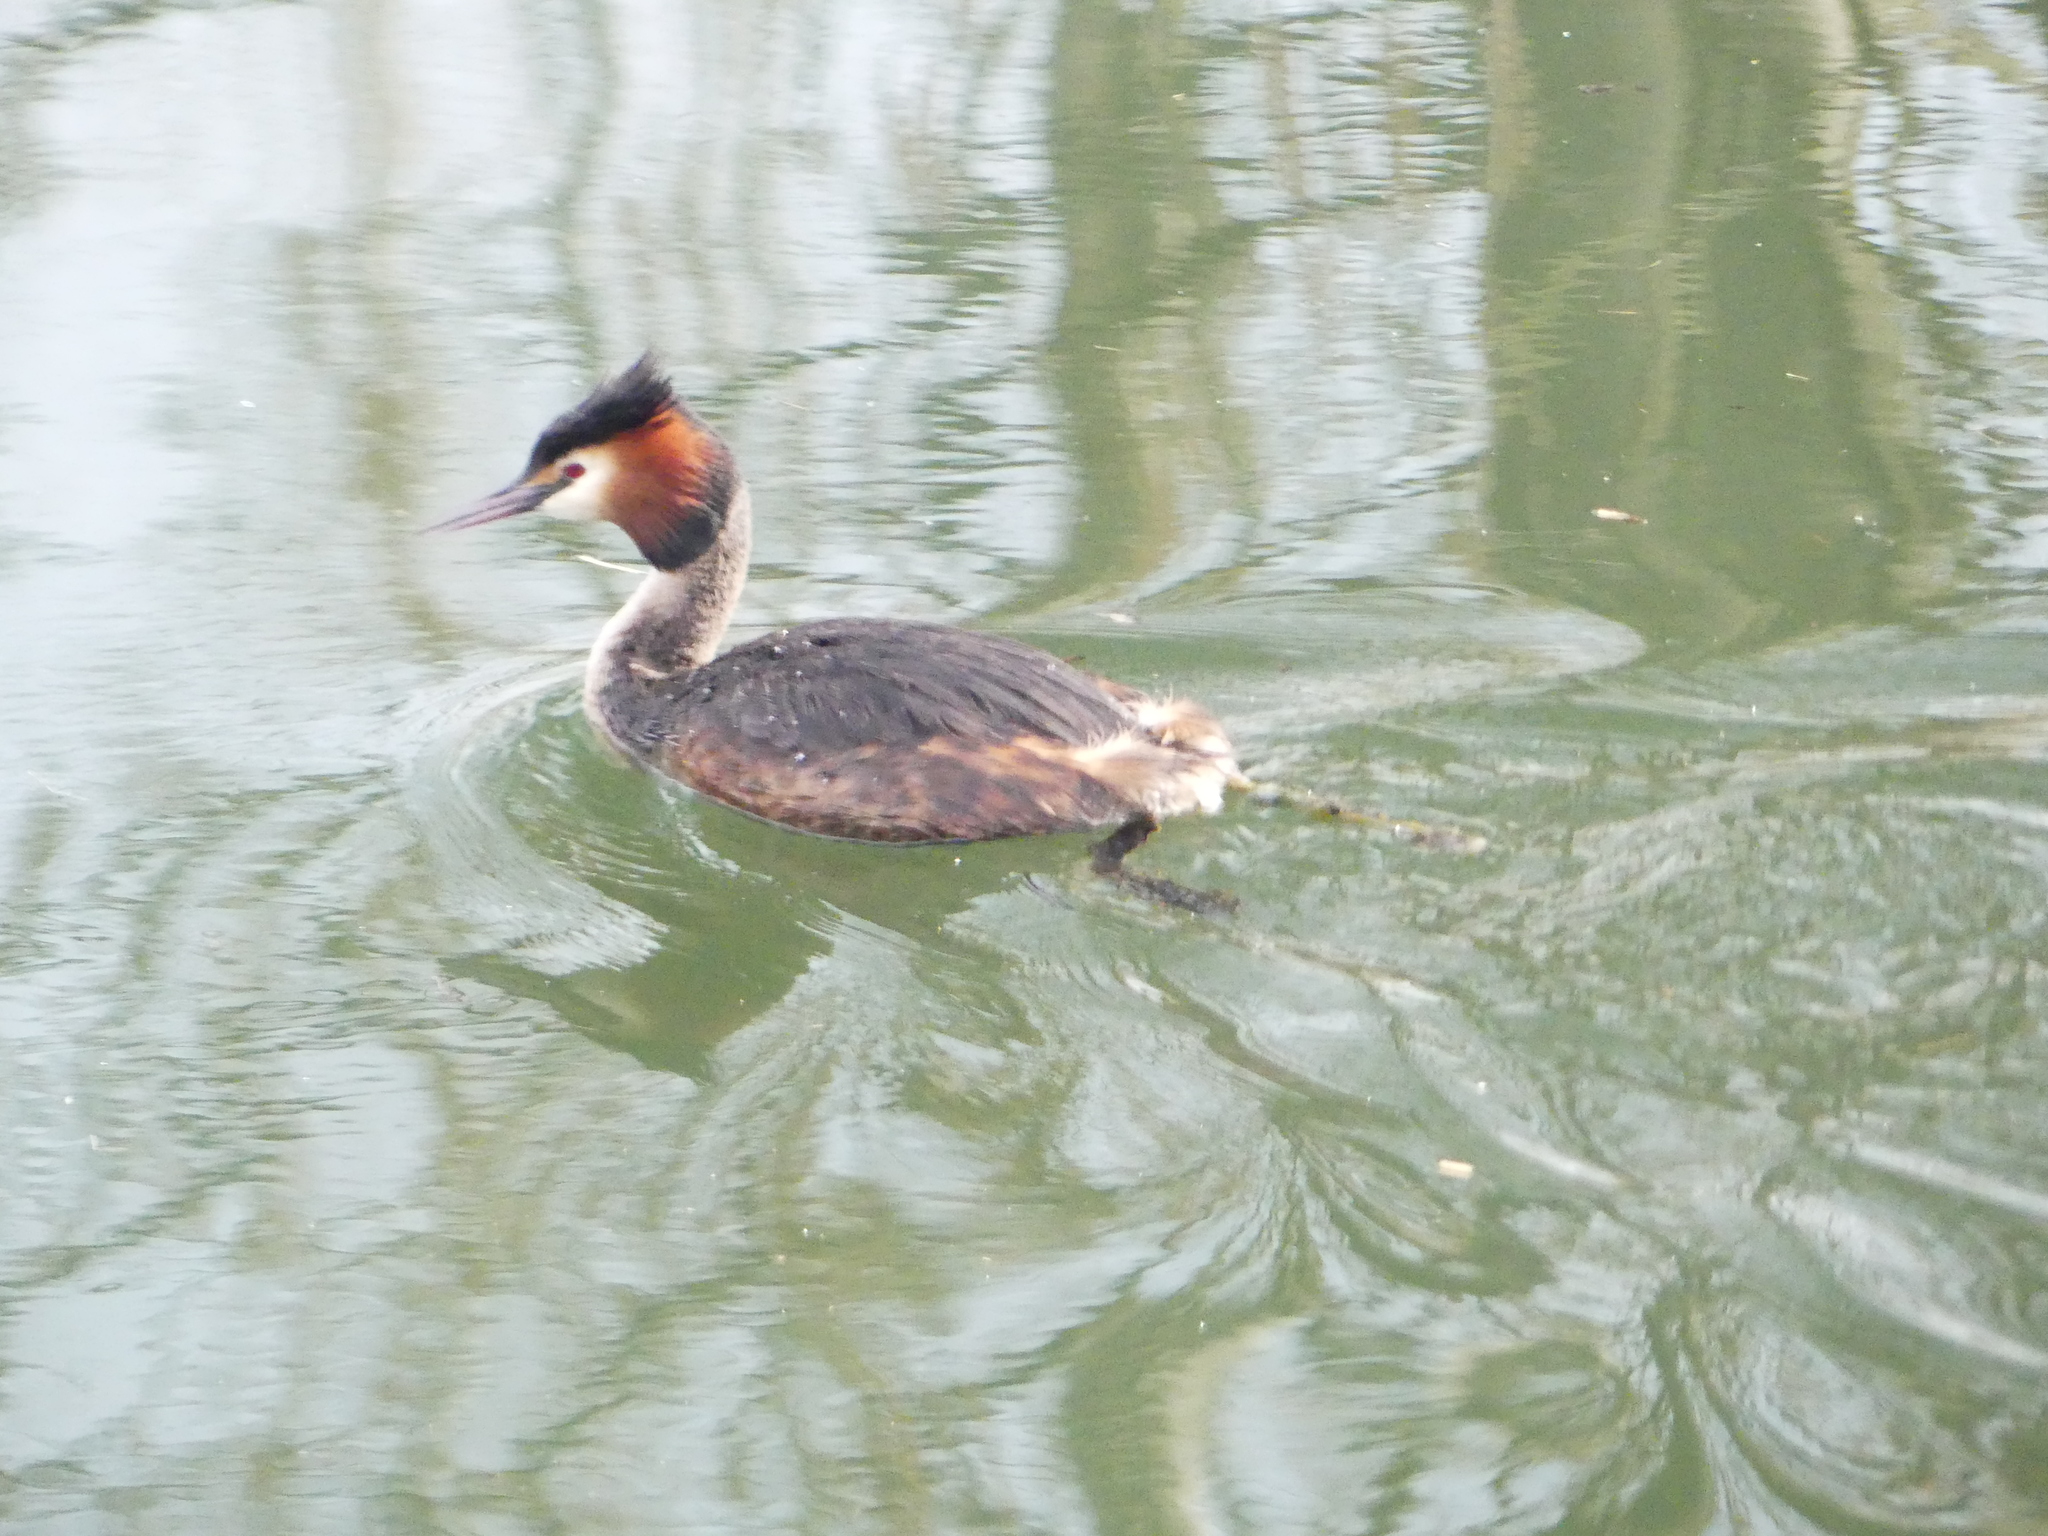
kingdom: Animalia
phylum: Chordata
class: Aves
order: Podicipediformes
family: Podicipedidae
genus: Podiceps
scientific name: Podiceps cristatus
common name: Great crested grebe
